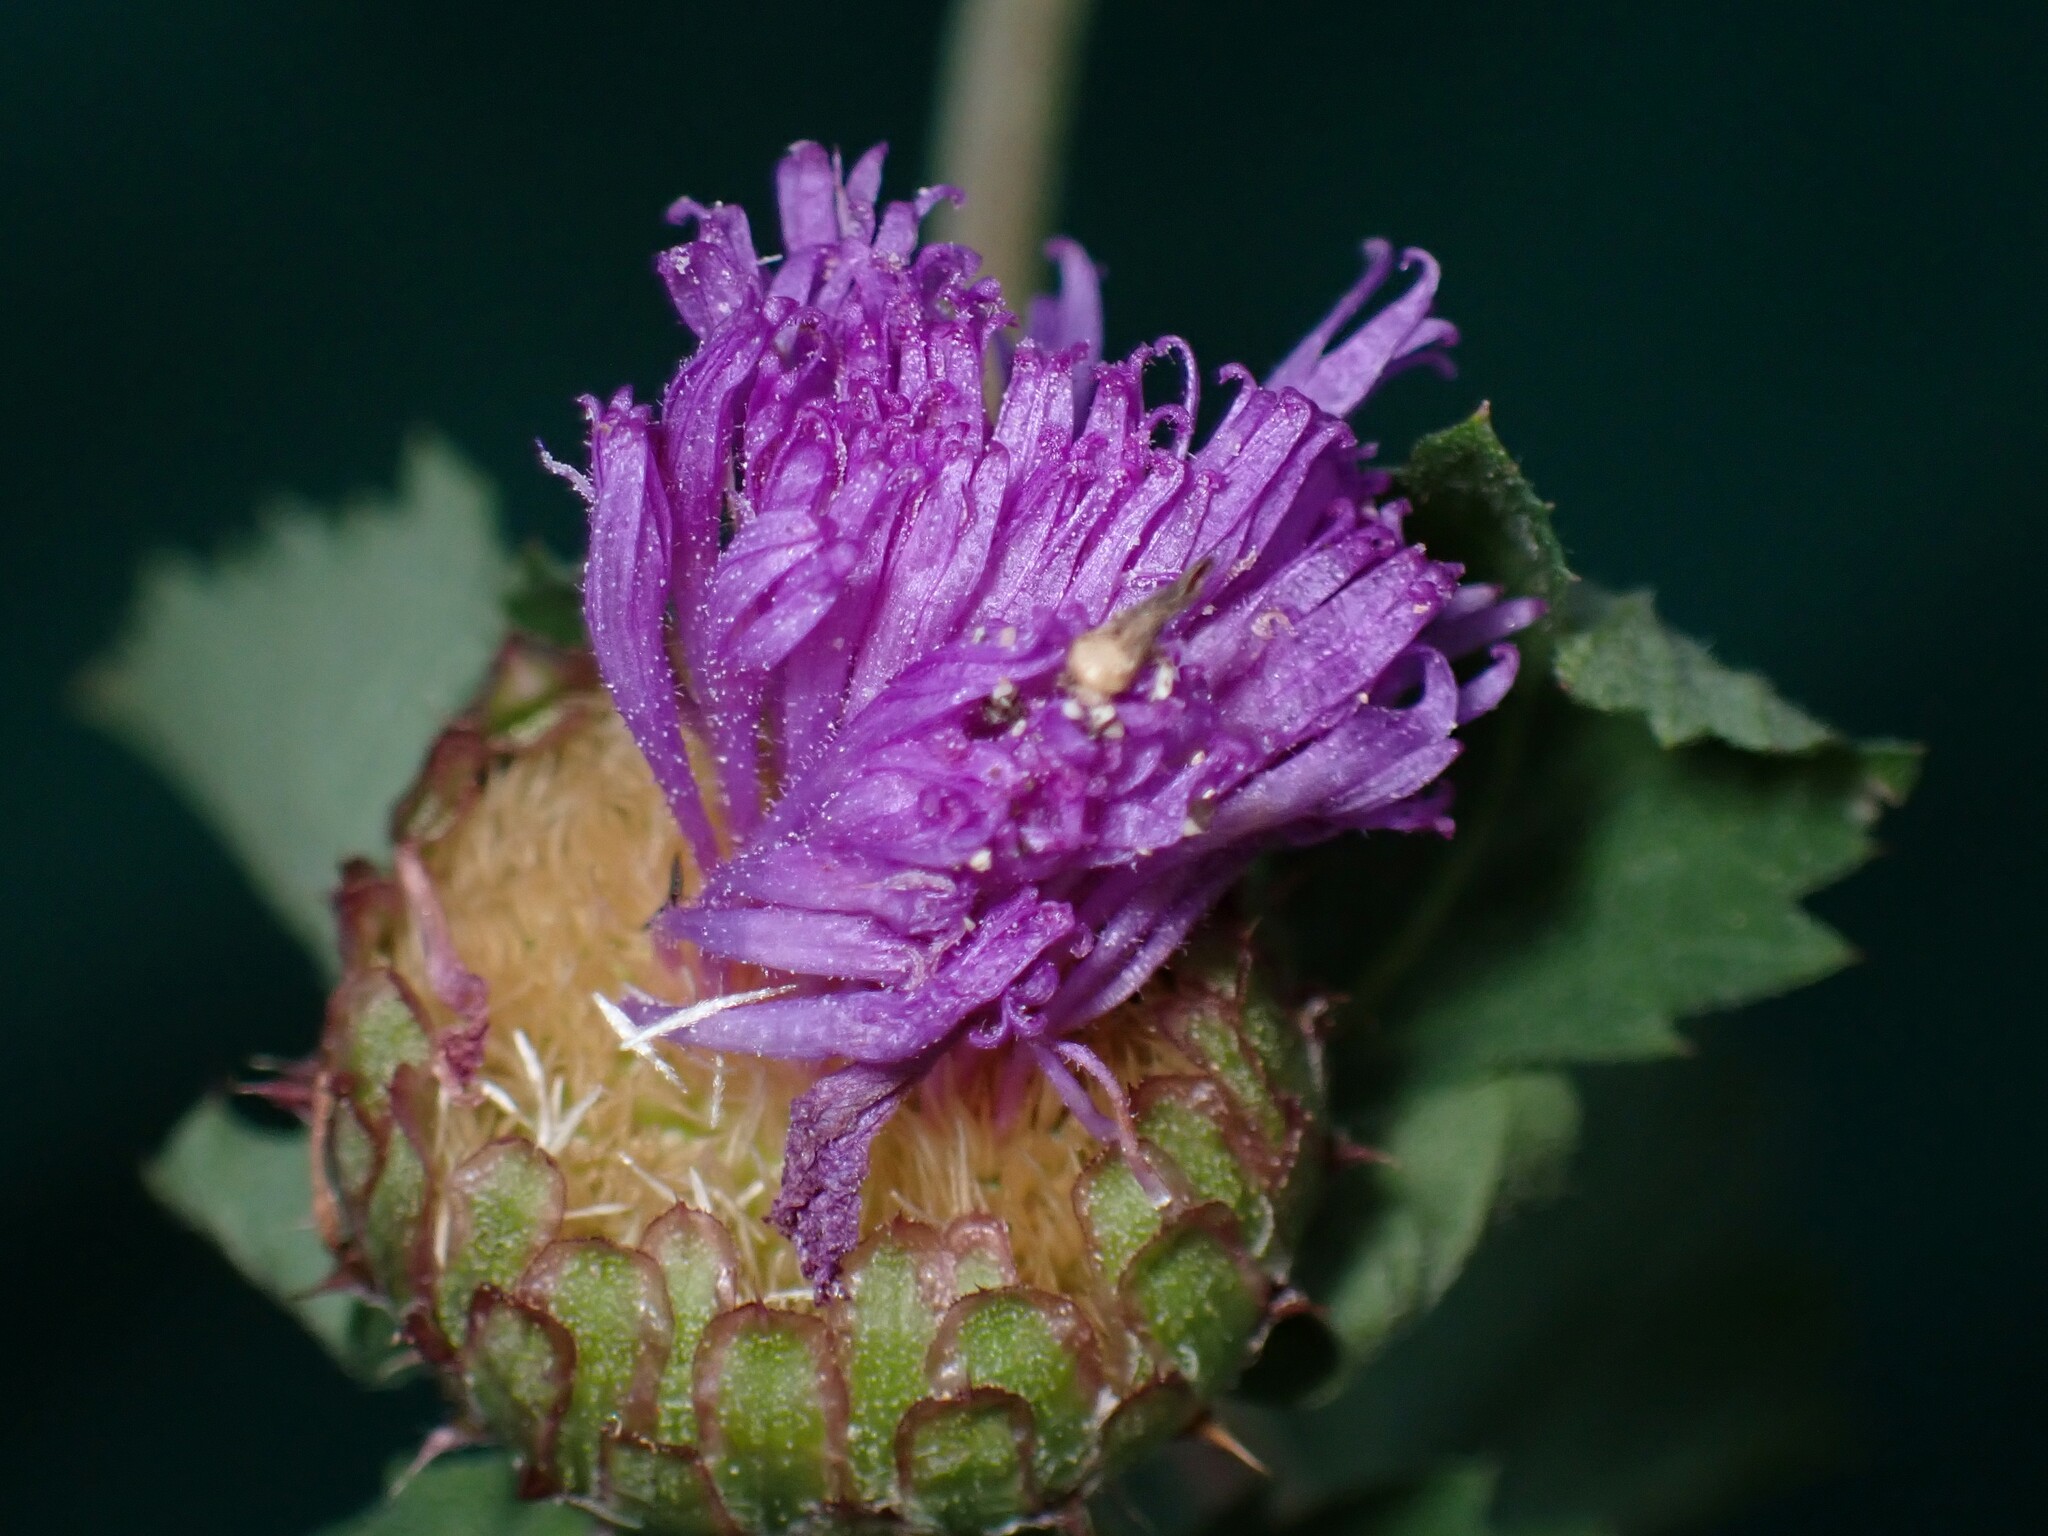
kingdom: Plantae
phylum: Tracheophyta
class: Magnoliopsida
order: Asterales
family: Asteraceae
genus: Centratherum
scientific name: Centratherum punctatum
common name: Larkdaisy
